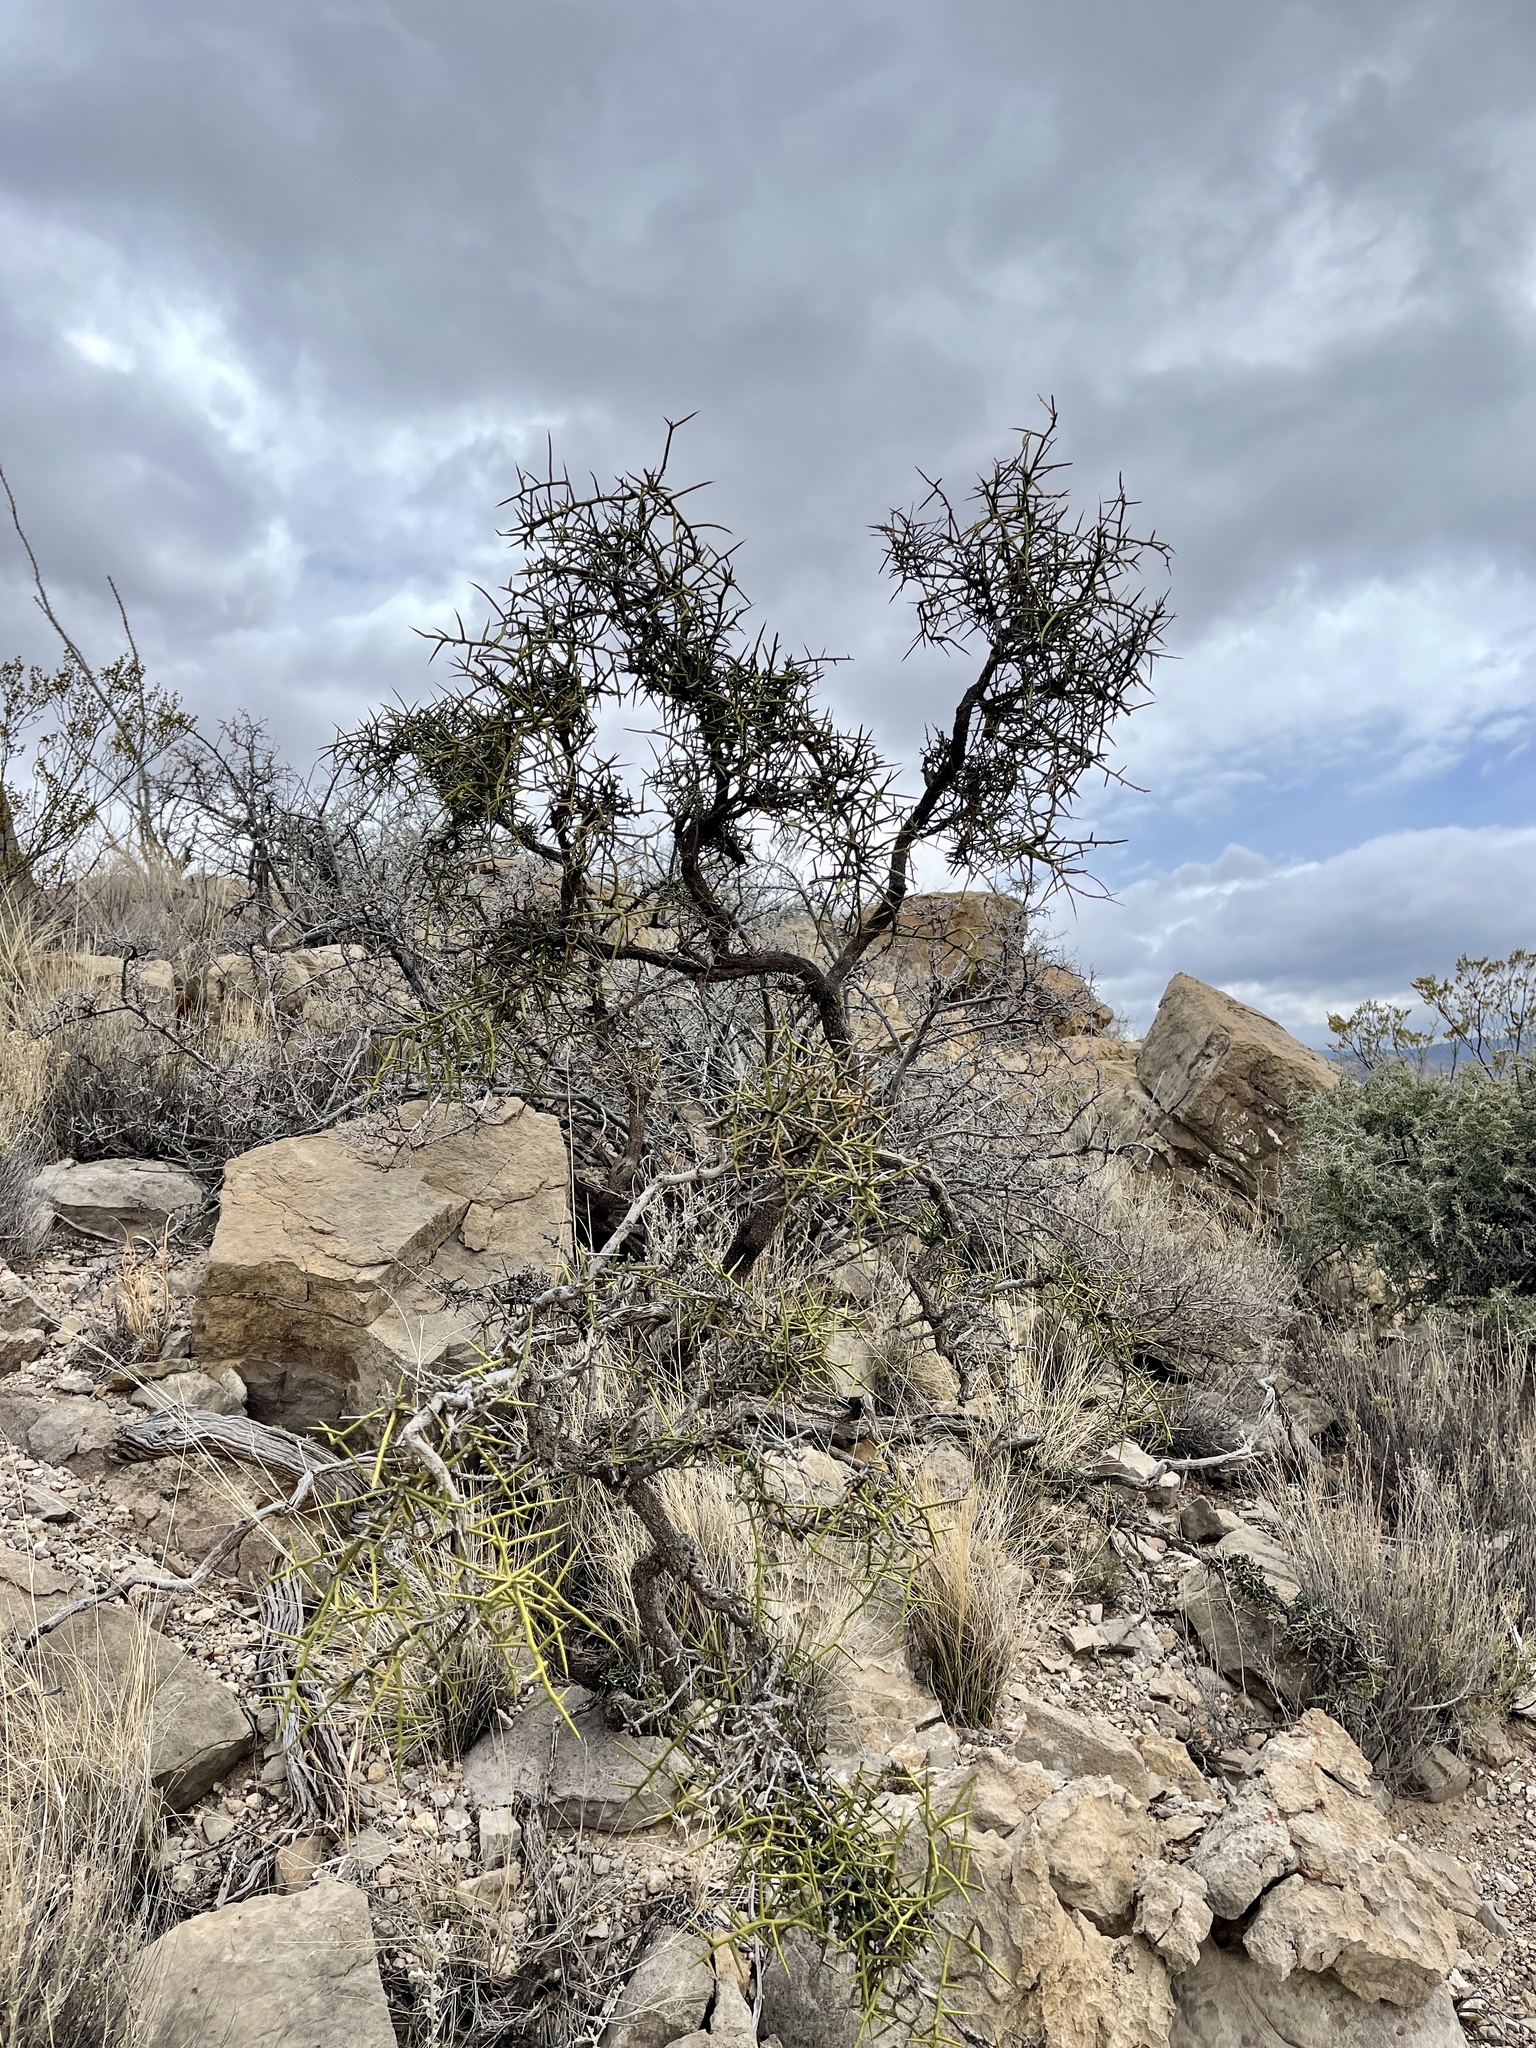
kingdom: Plantae
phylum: Tracheophyta
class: Magnoliopsida
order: Brassicales
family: Koeberliniaceae
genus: Koeberlinia
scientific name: Koeberlinia spinosa
